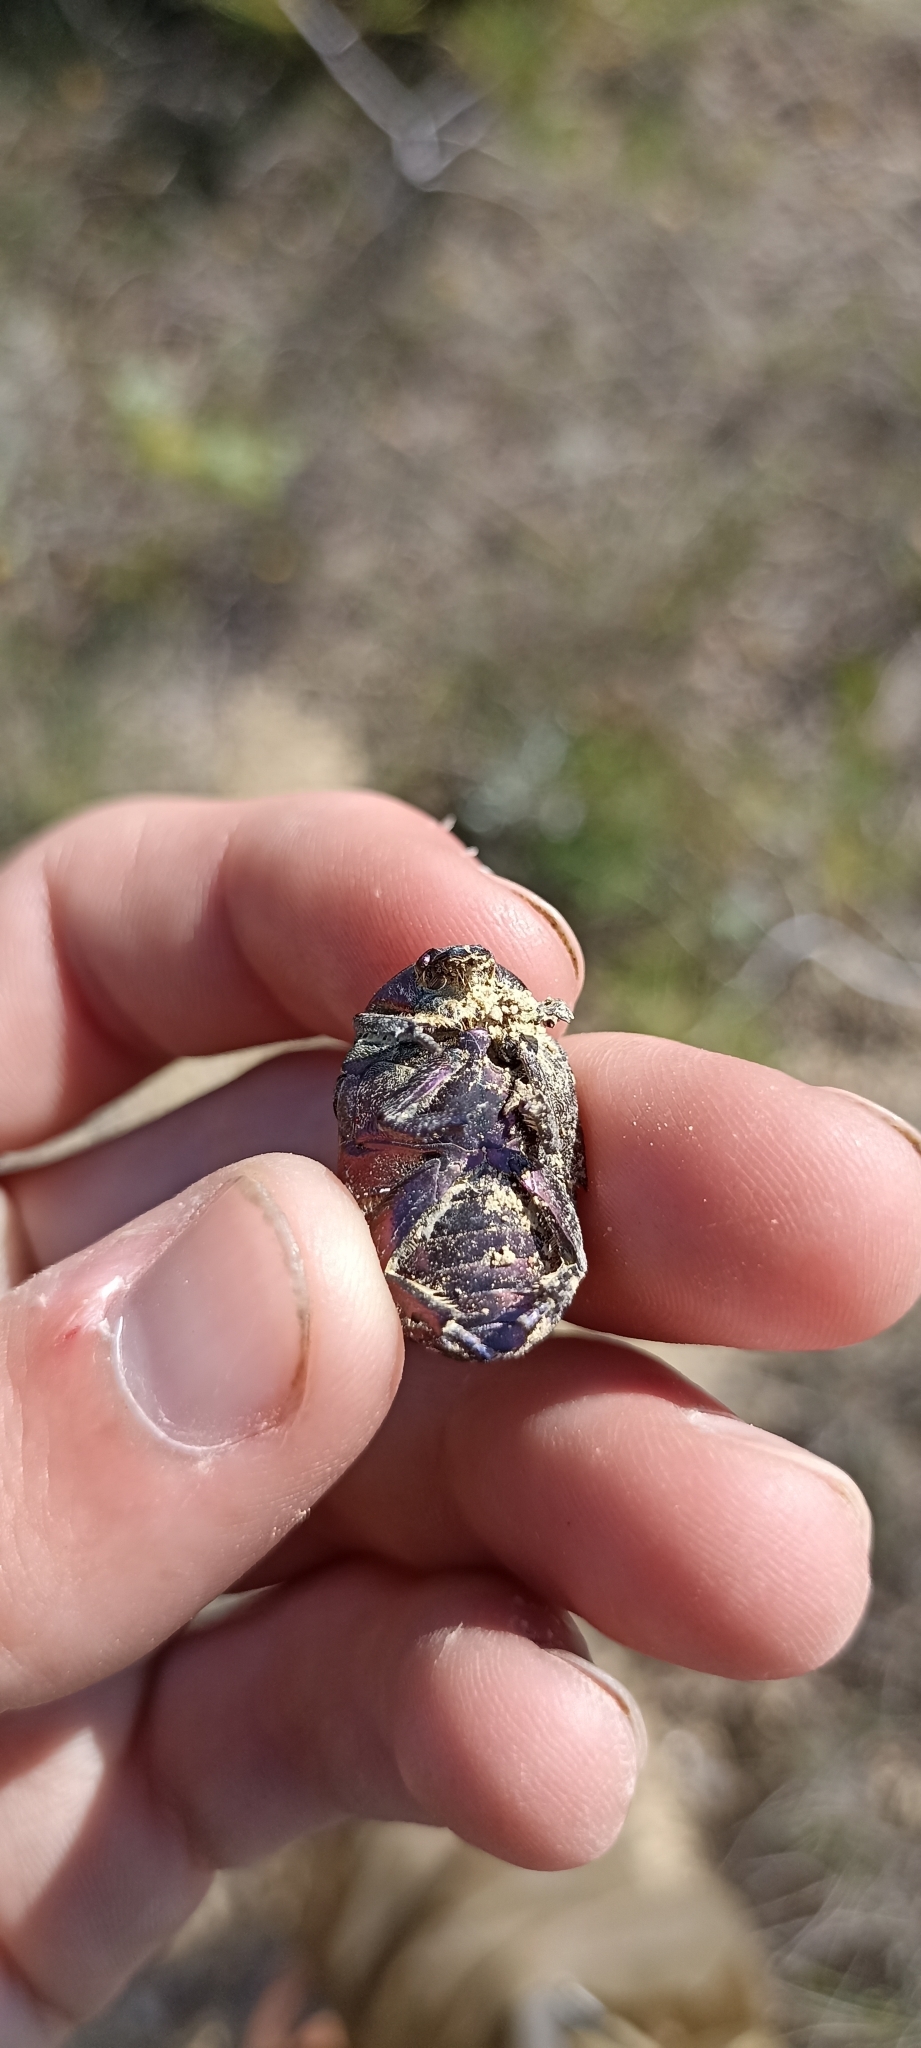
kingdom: Animalia
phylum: Arthropoda
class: Insecta
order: Coleoptera
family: Scarabaeidae
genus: Protaetia
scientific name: Protaetia cuprea
